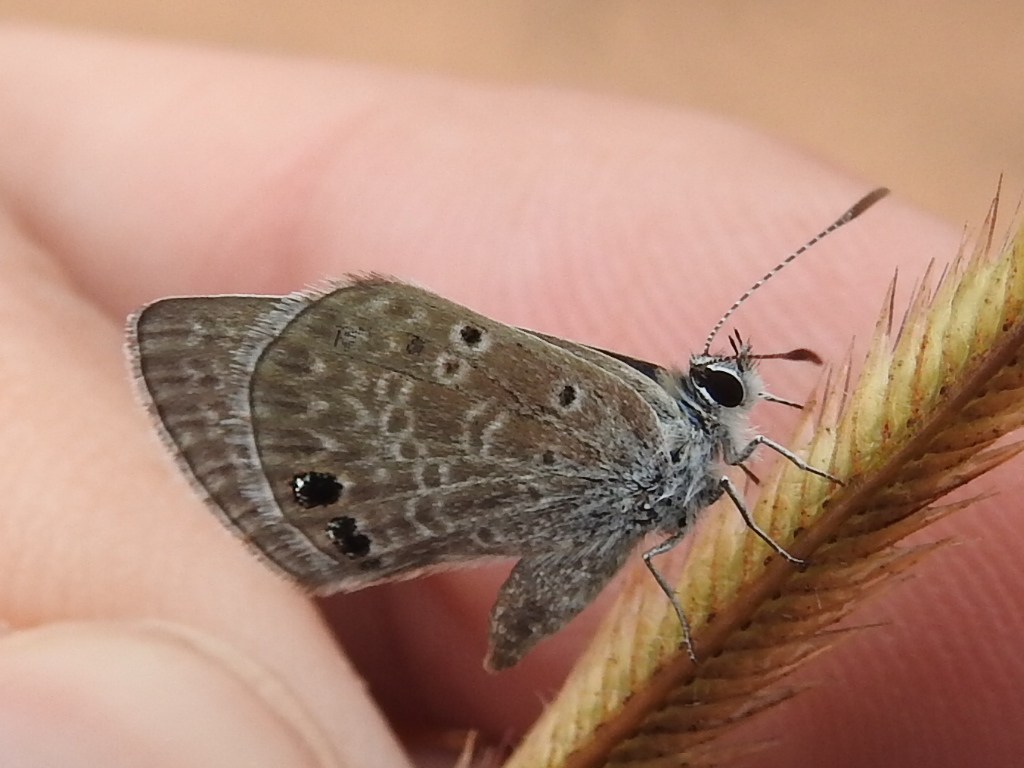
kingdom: Animalia
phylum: Arthropoda
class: Insecta
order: Lepidoptera
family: Lycaenidae
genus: Echinargus
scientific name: Echinargus isola
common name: Reakirt's blue
